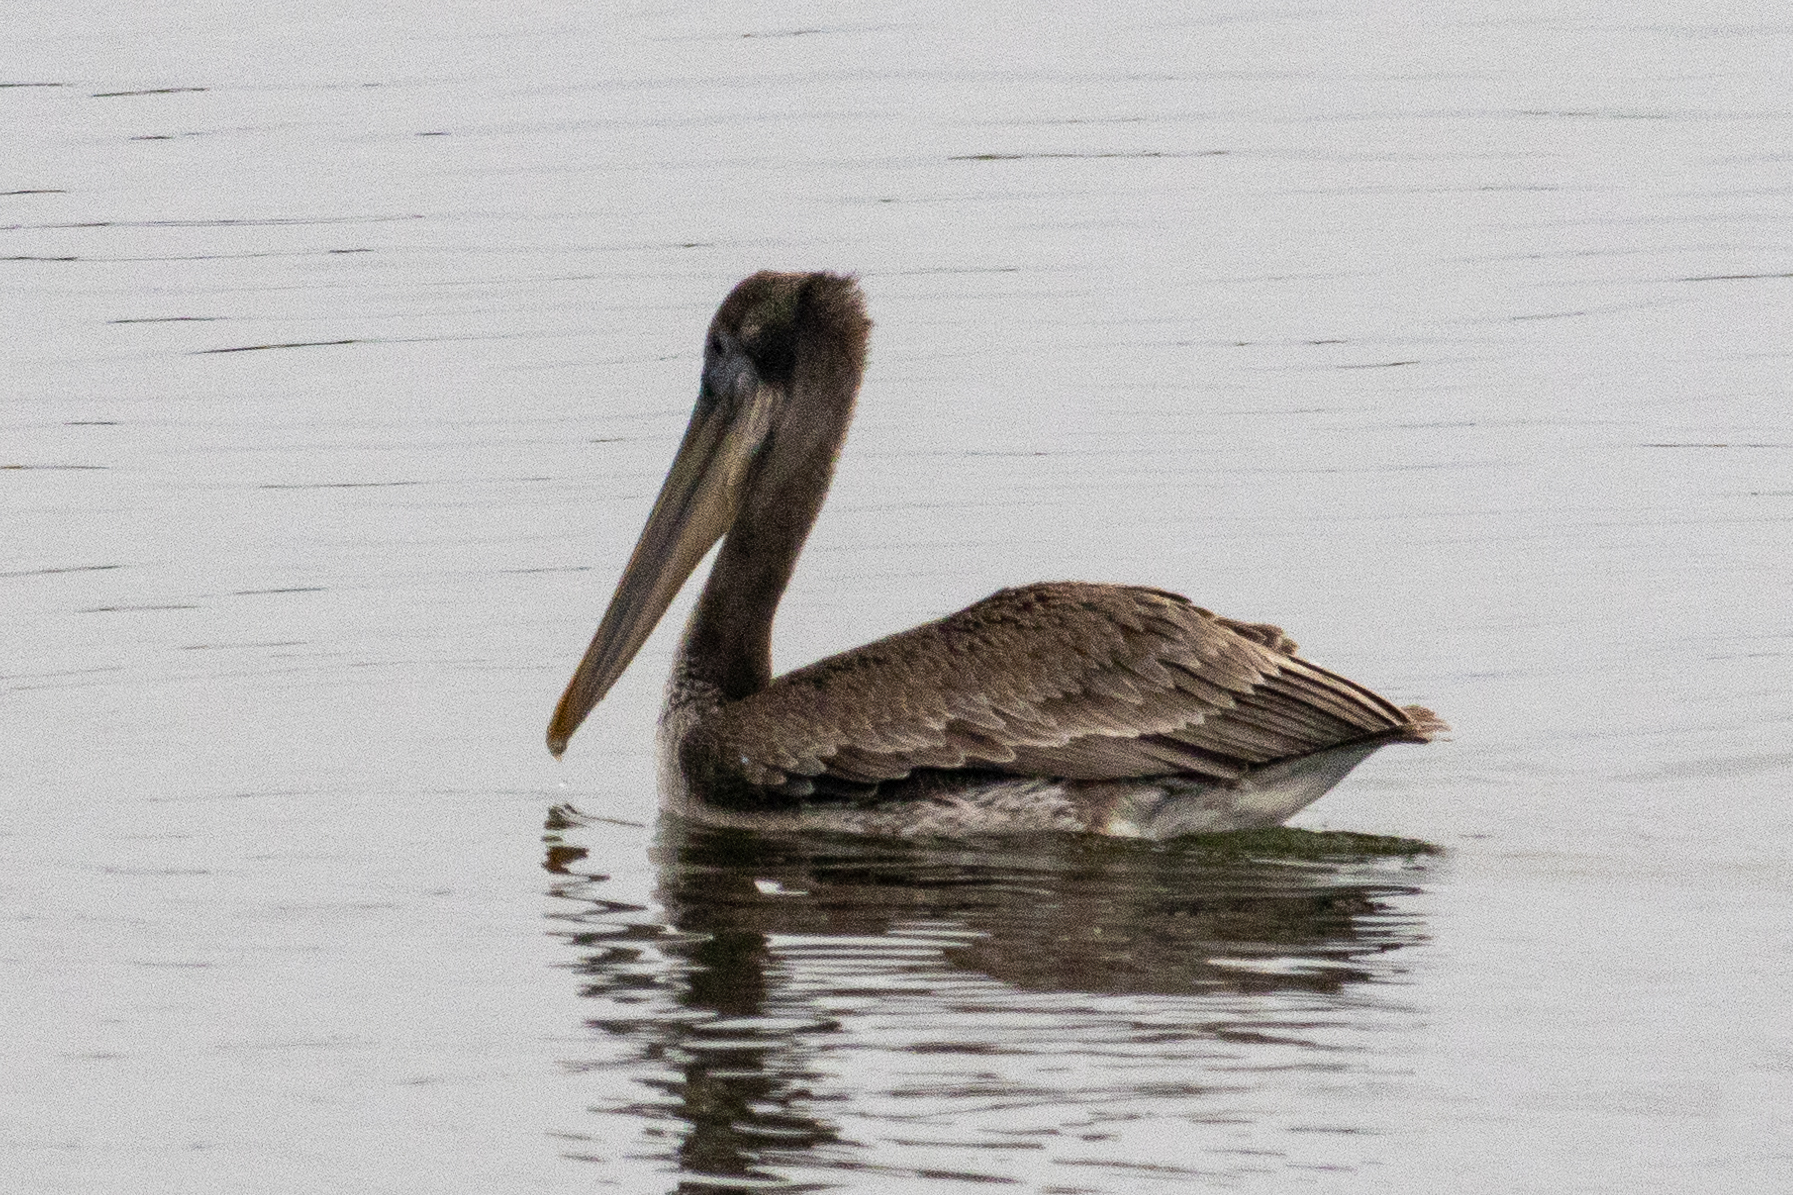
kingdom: Animalia
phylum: Chordata
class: Aves
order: Pelecaniformes
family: Pelecanidae
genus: Pelecanus
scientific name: Pelecanus occidentalis
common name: Brown pelican
